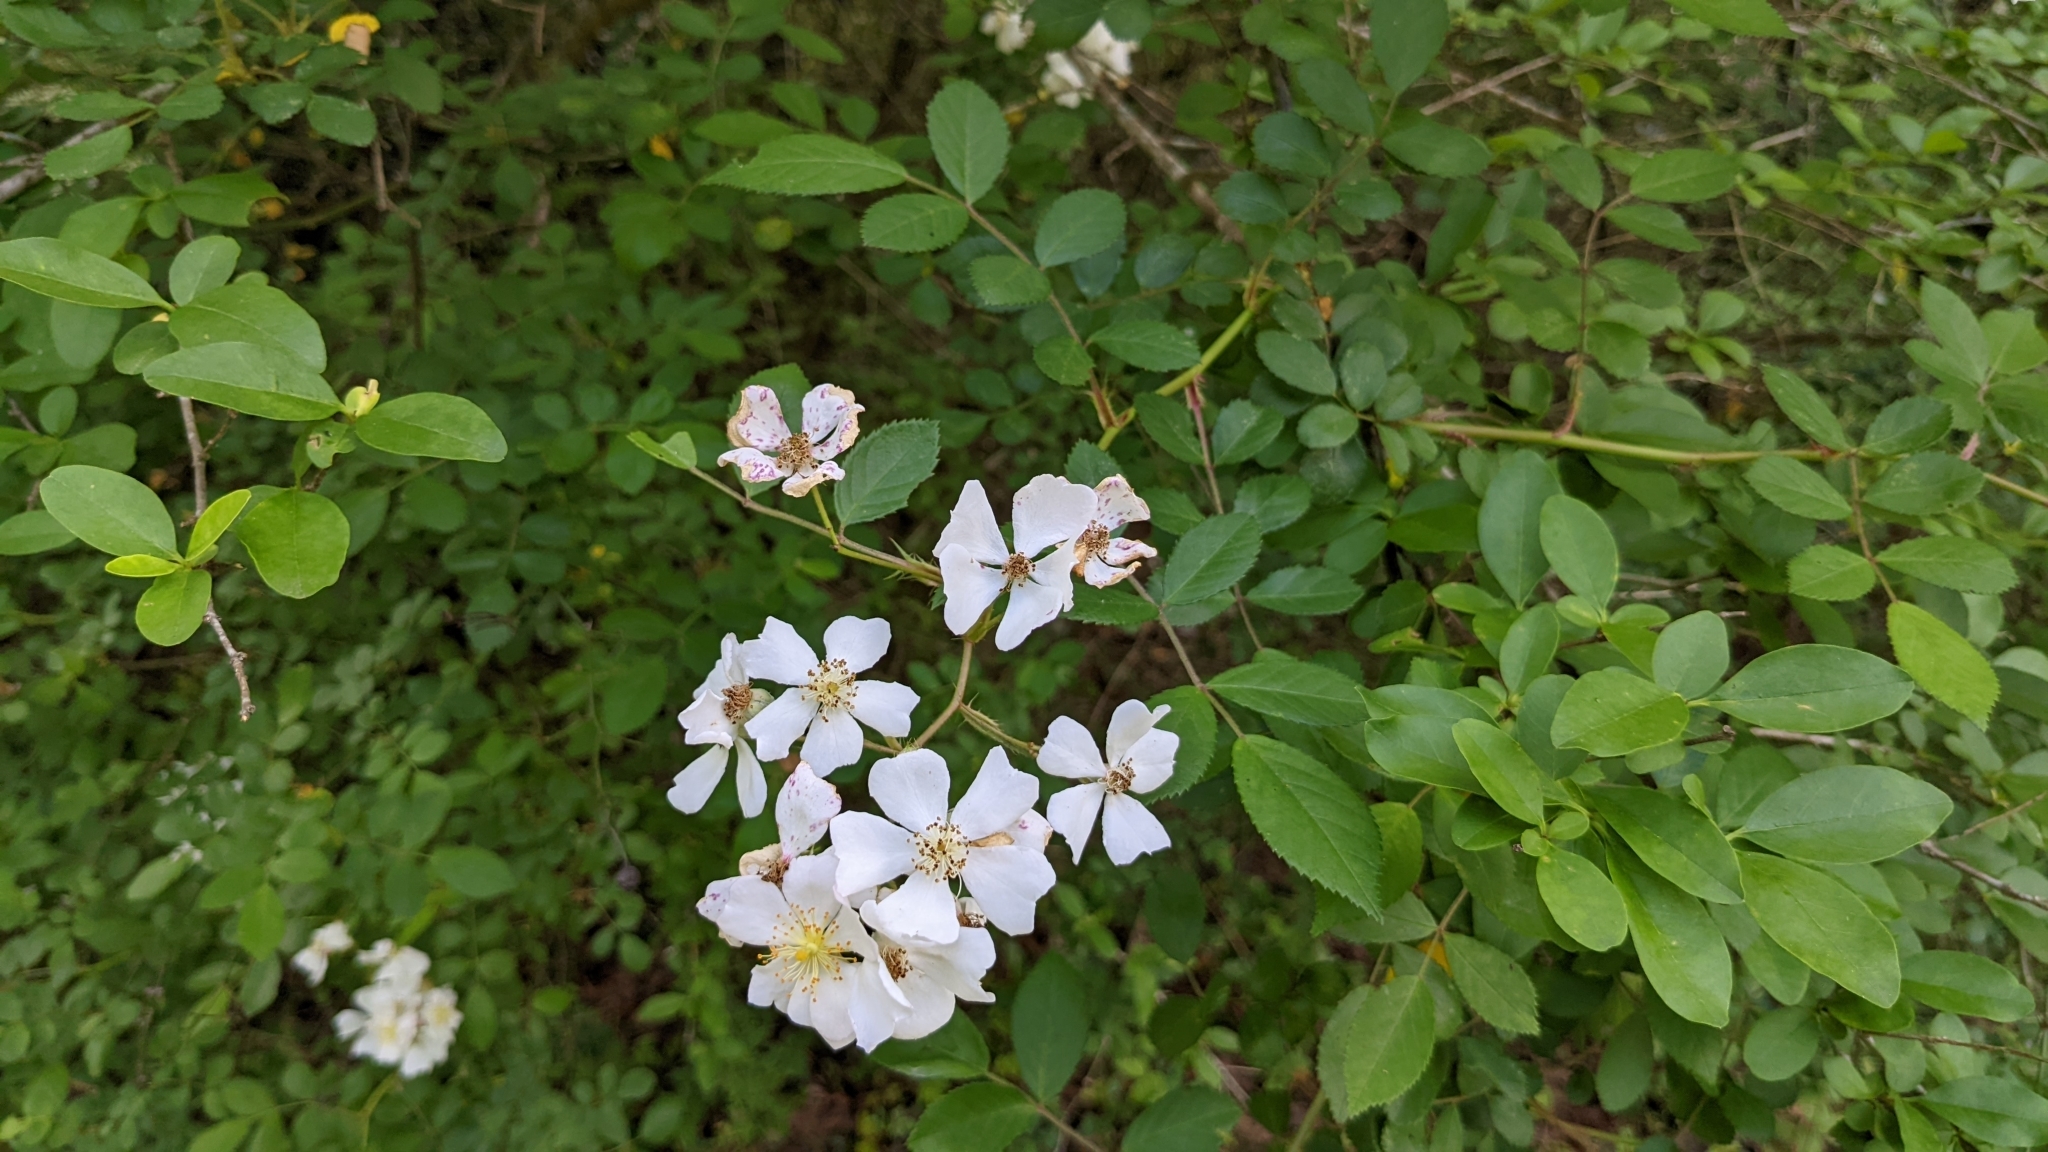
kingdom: Plantae
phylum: Tracheophyta
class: Magnoliopsida
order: Rosales
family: Rosaceae
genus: Rosa
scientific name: Rosa multiflora
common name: Multiflora rose
